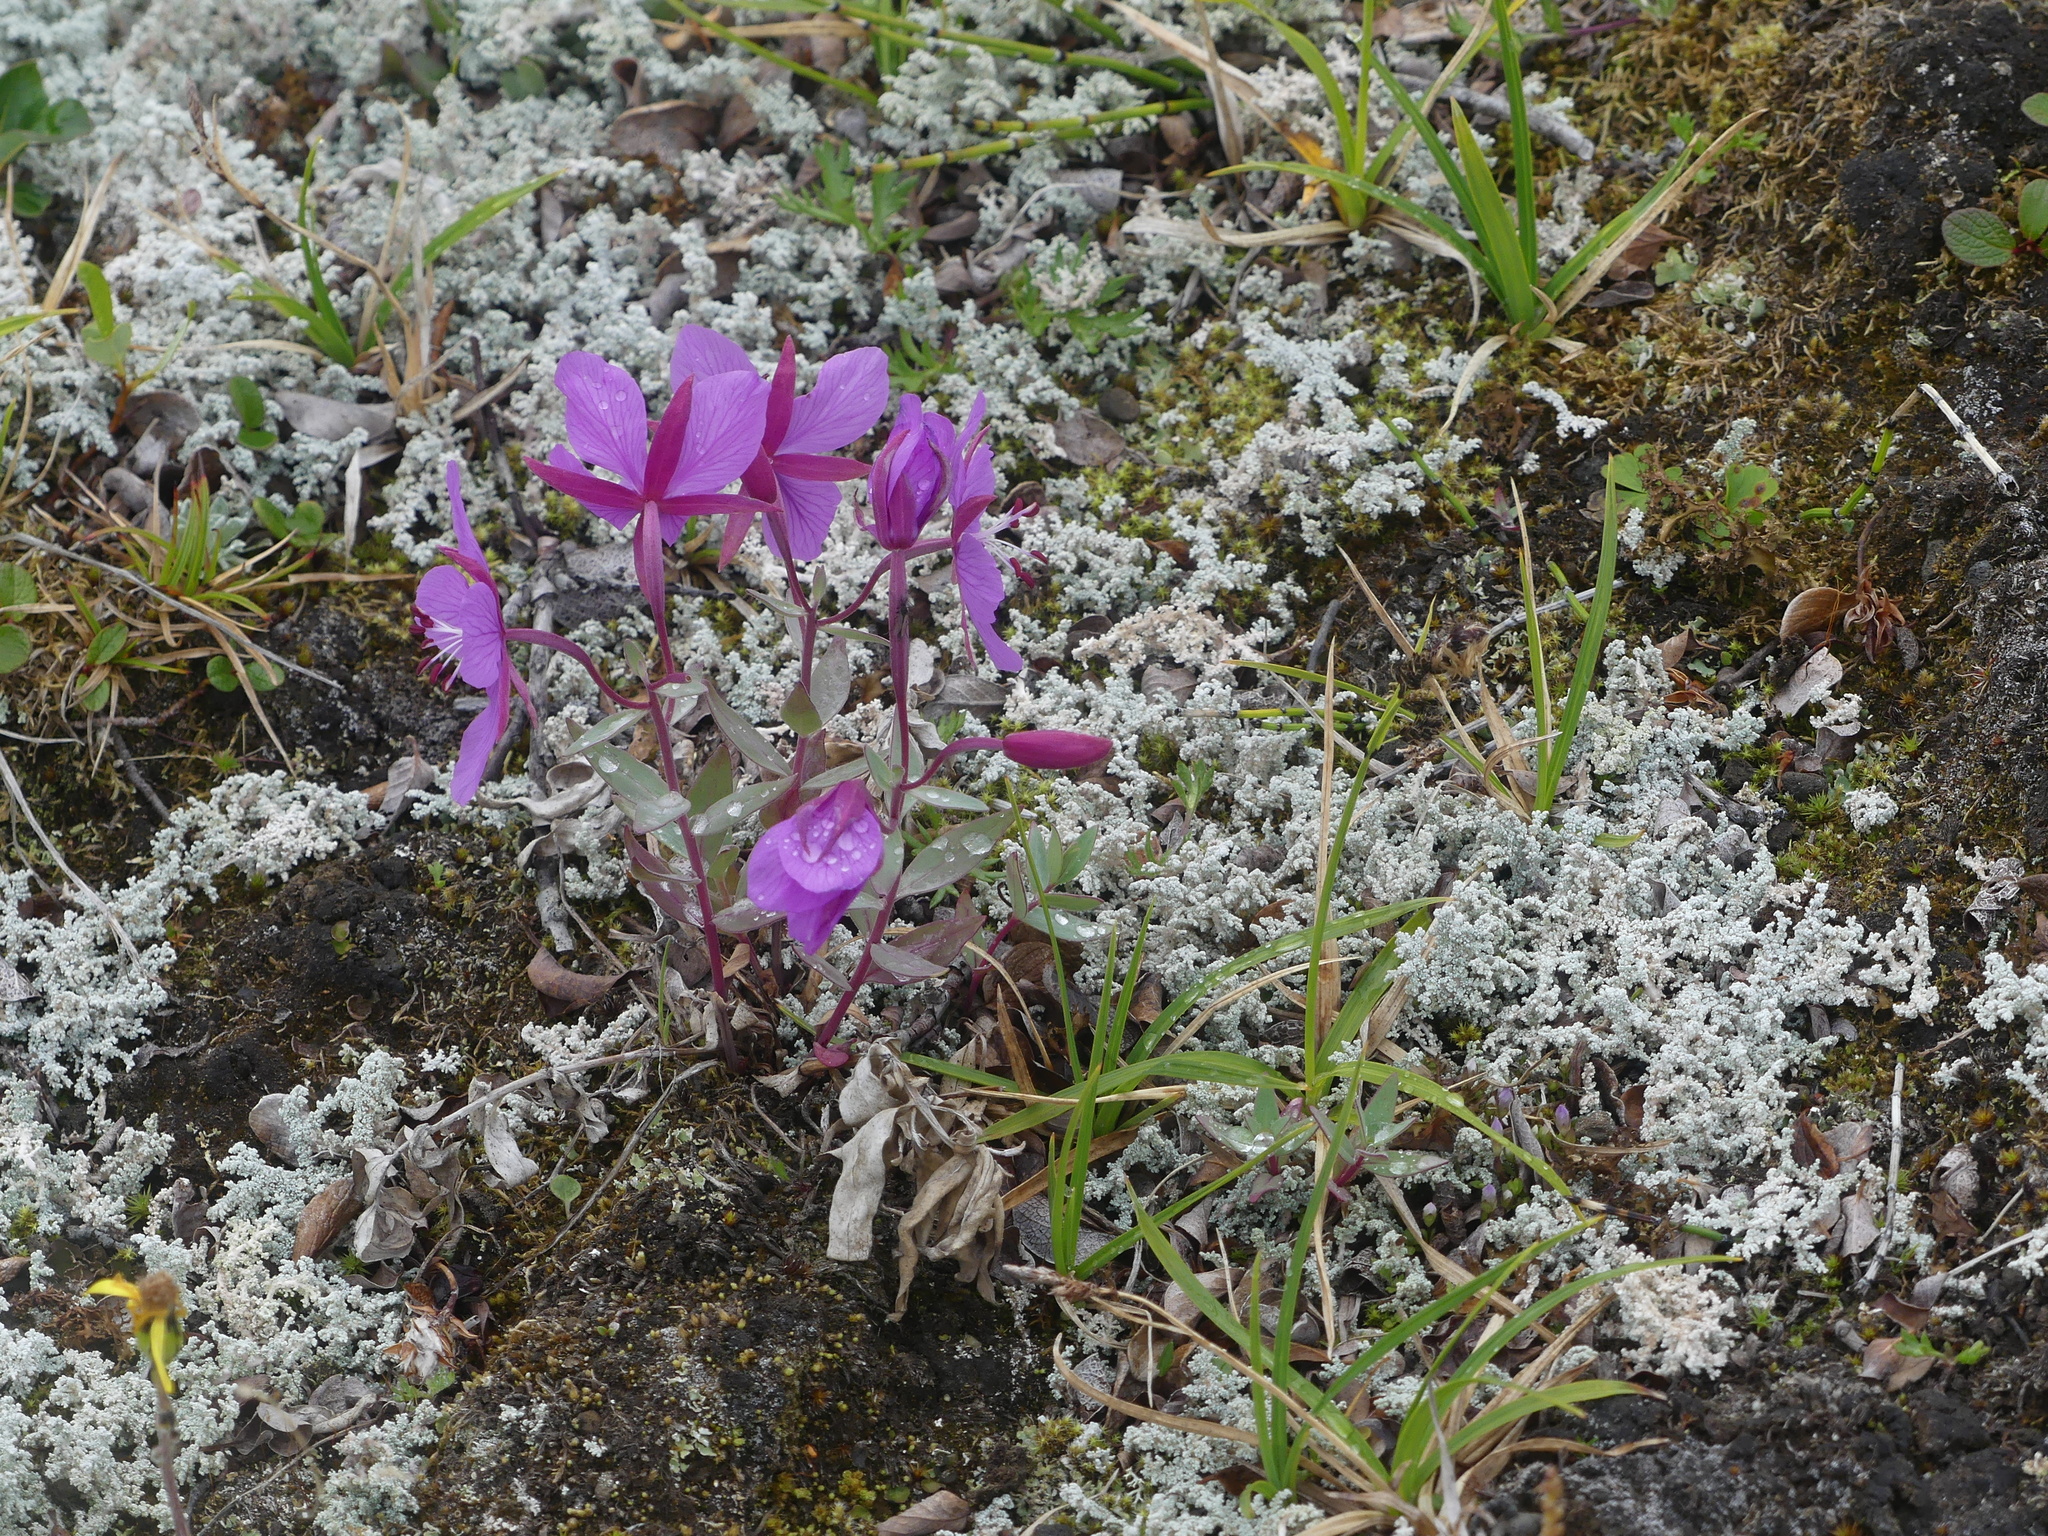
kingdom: Plantae
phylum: Tracheophyta
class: Magnoliopsida
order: Myrtales
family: Onagraceae
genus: Chamaenerion
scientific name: Chamaenerion latifolium
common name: Dwarf fireweed
